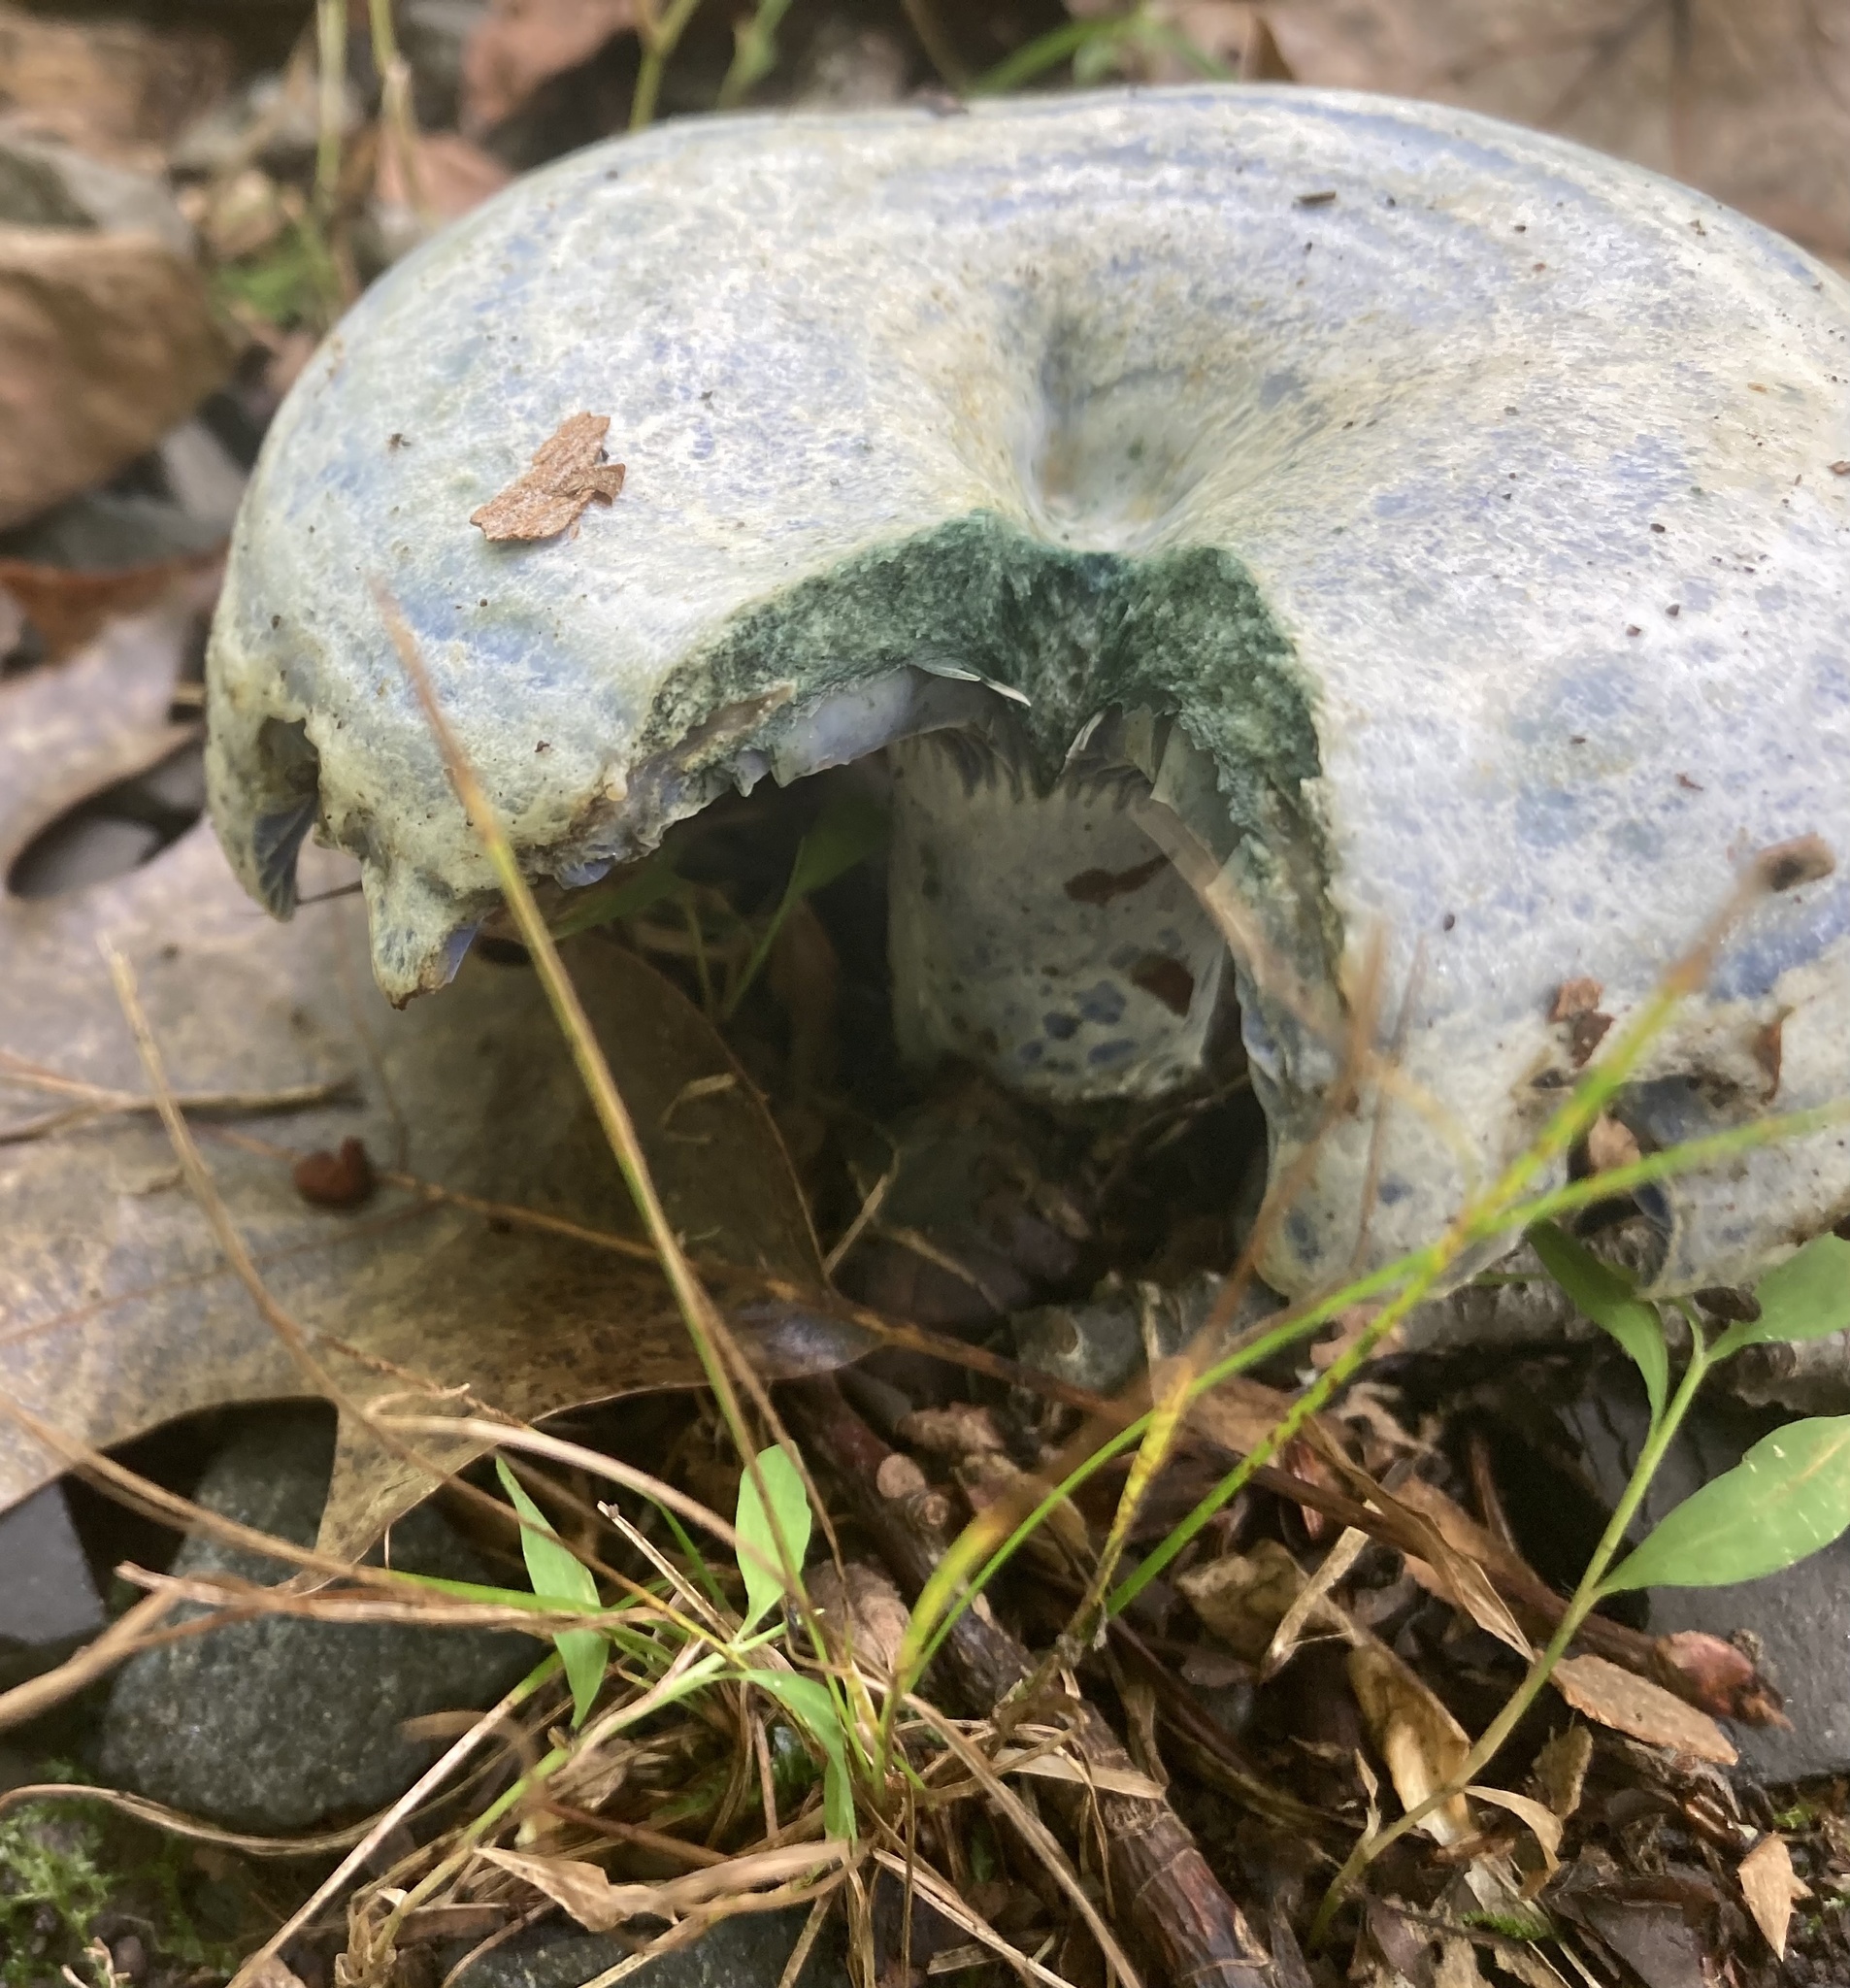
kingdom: Fungi
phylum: Basidiomycota
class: Agaricomycetes
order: Russulales
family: Russulaceae
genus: Lactarius
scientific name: Lactarius indigo
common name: Indigo milk cap
